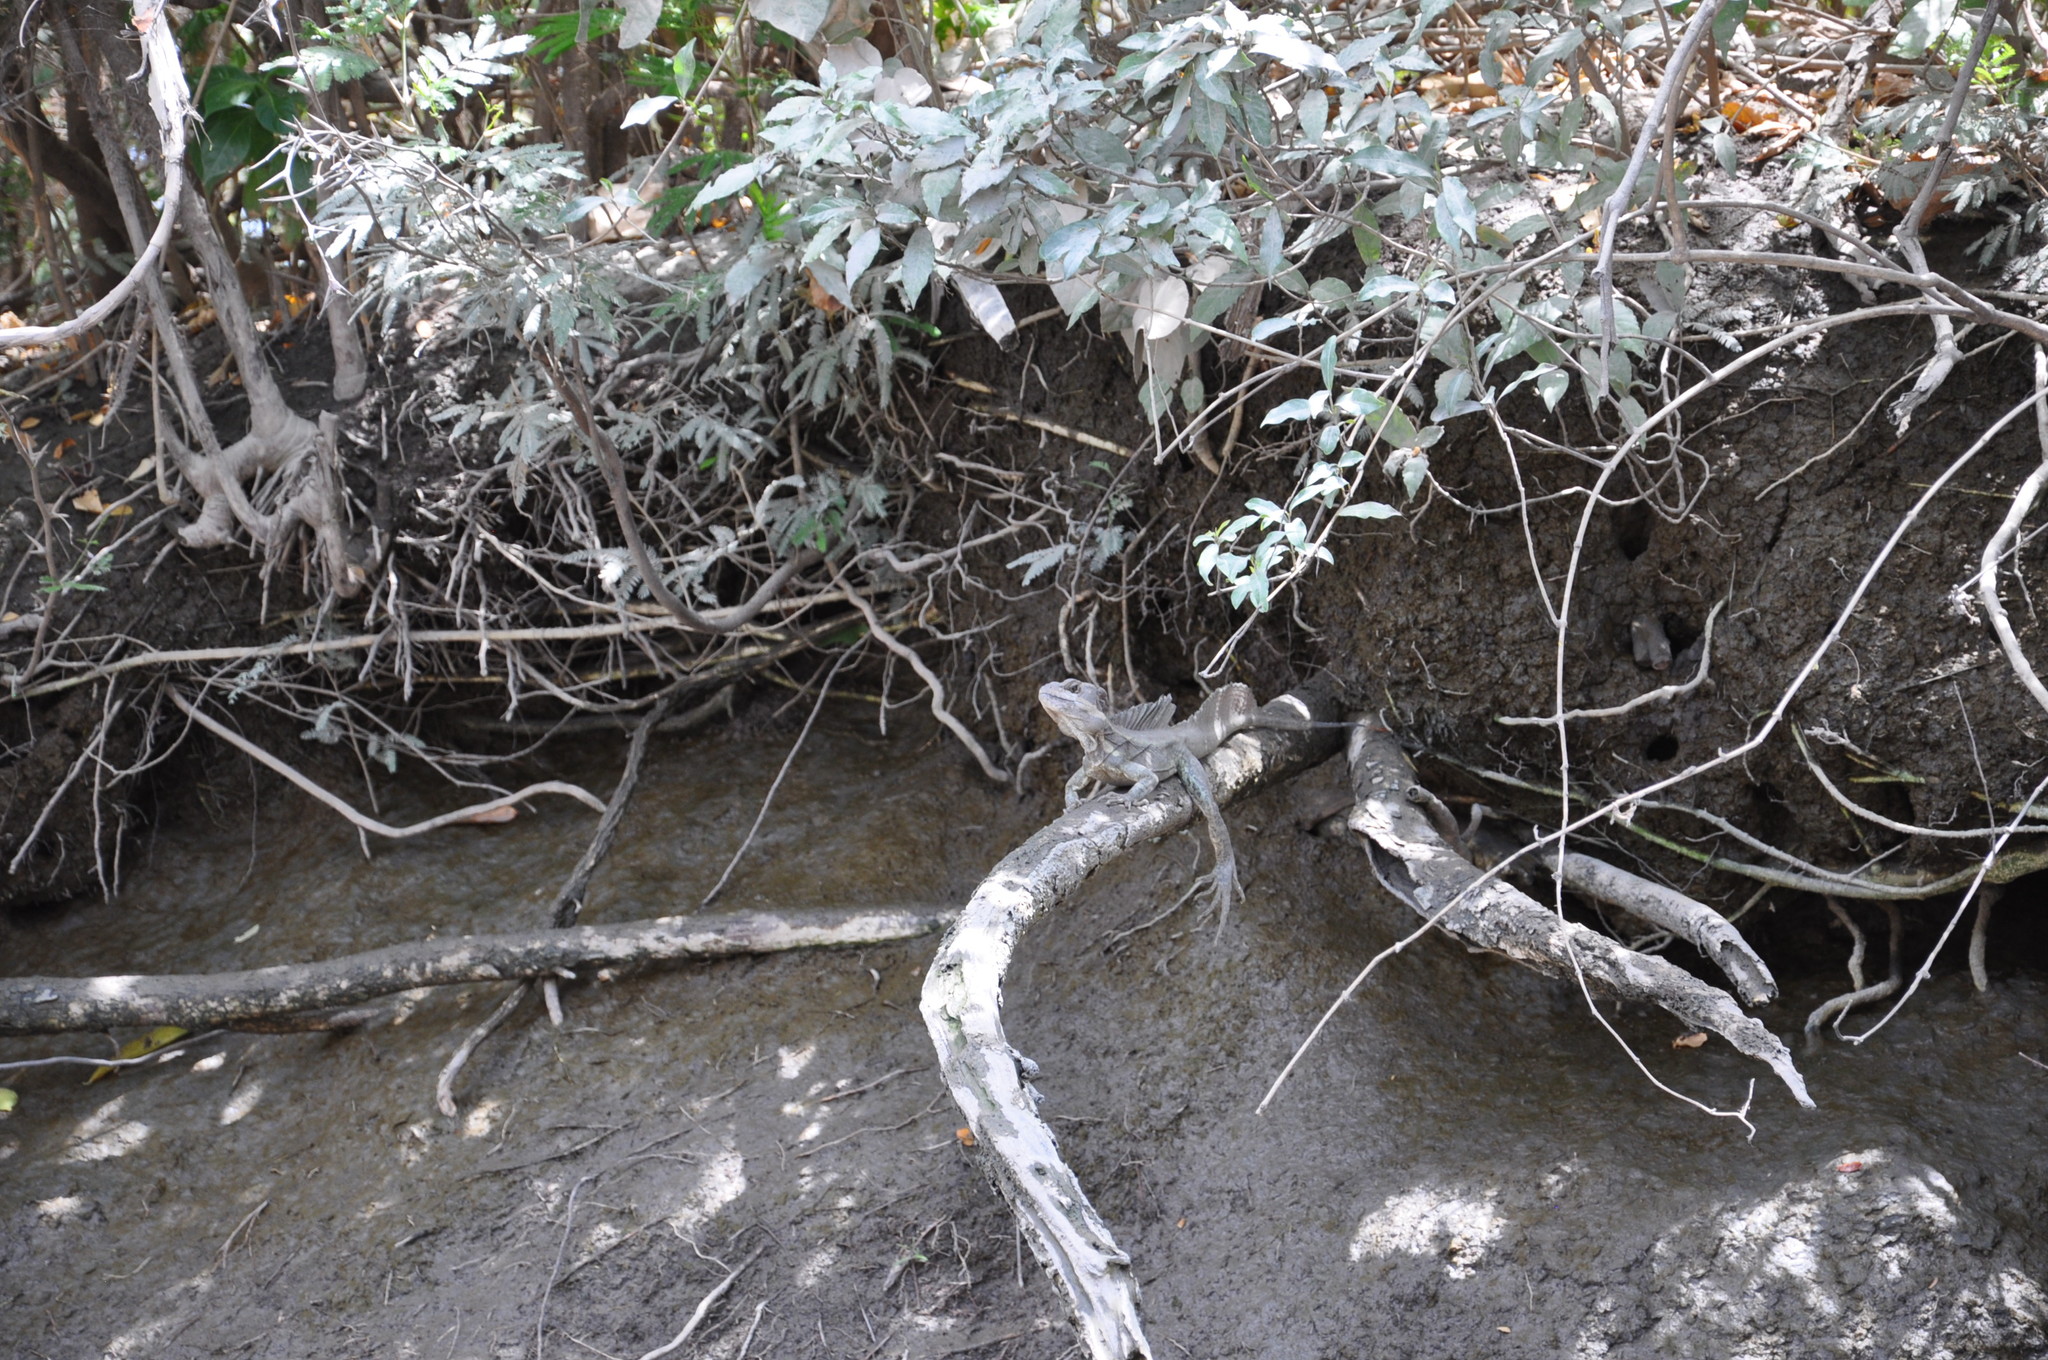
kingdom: Animalia
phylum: Chordata
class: Squamata
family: Corytophanidae
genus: Basiliscus
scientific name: Basiliscus basiliscus
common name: Common basilisk
